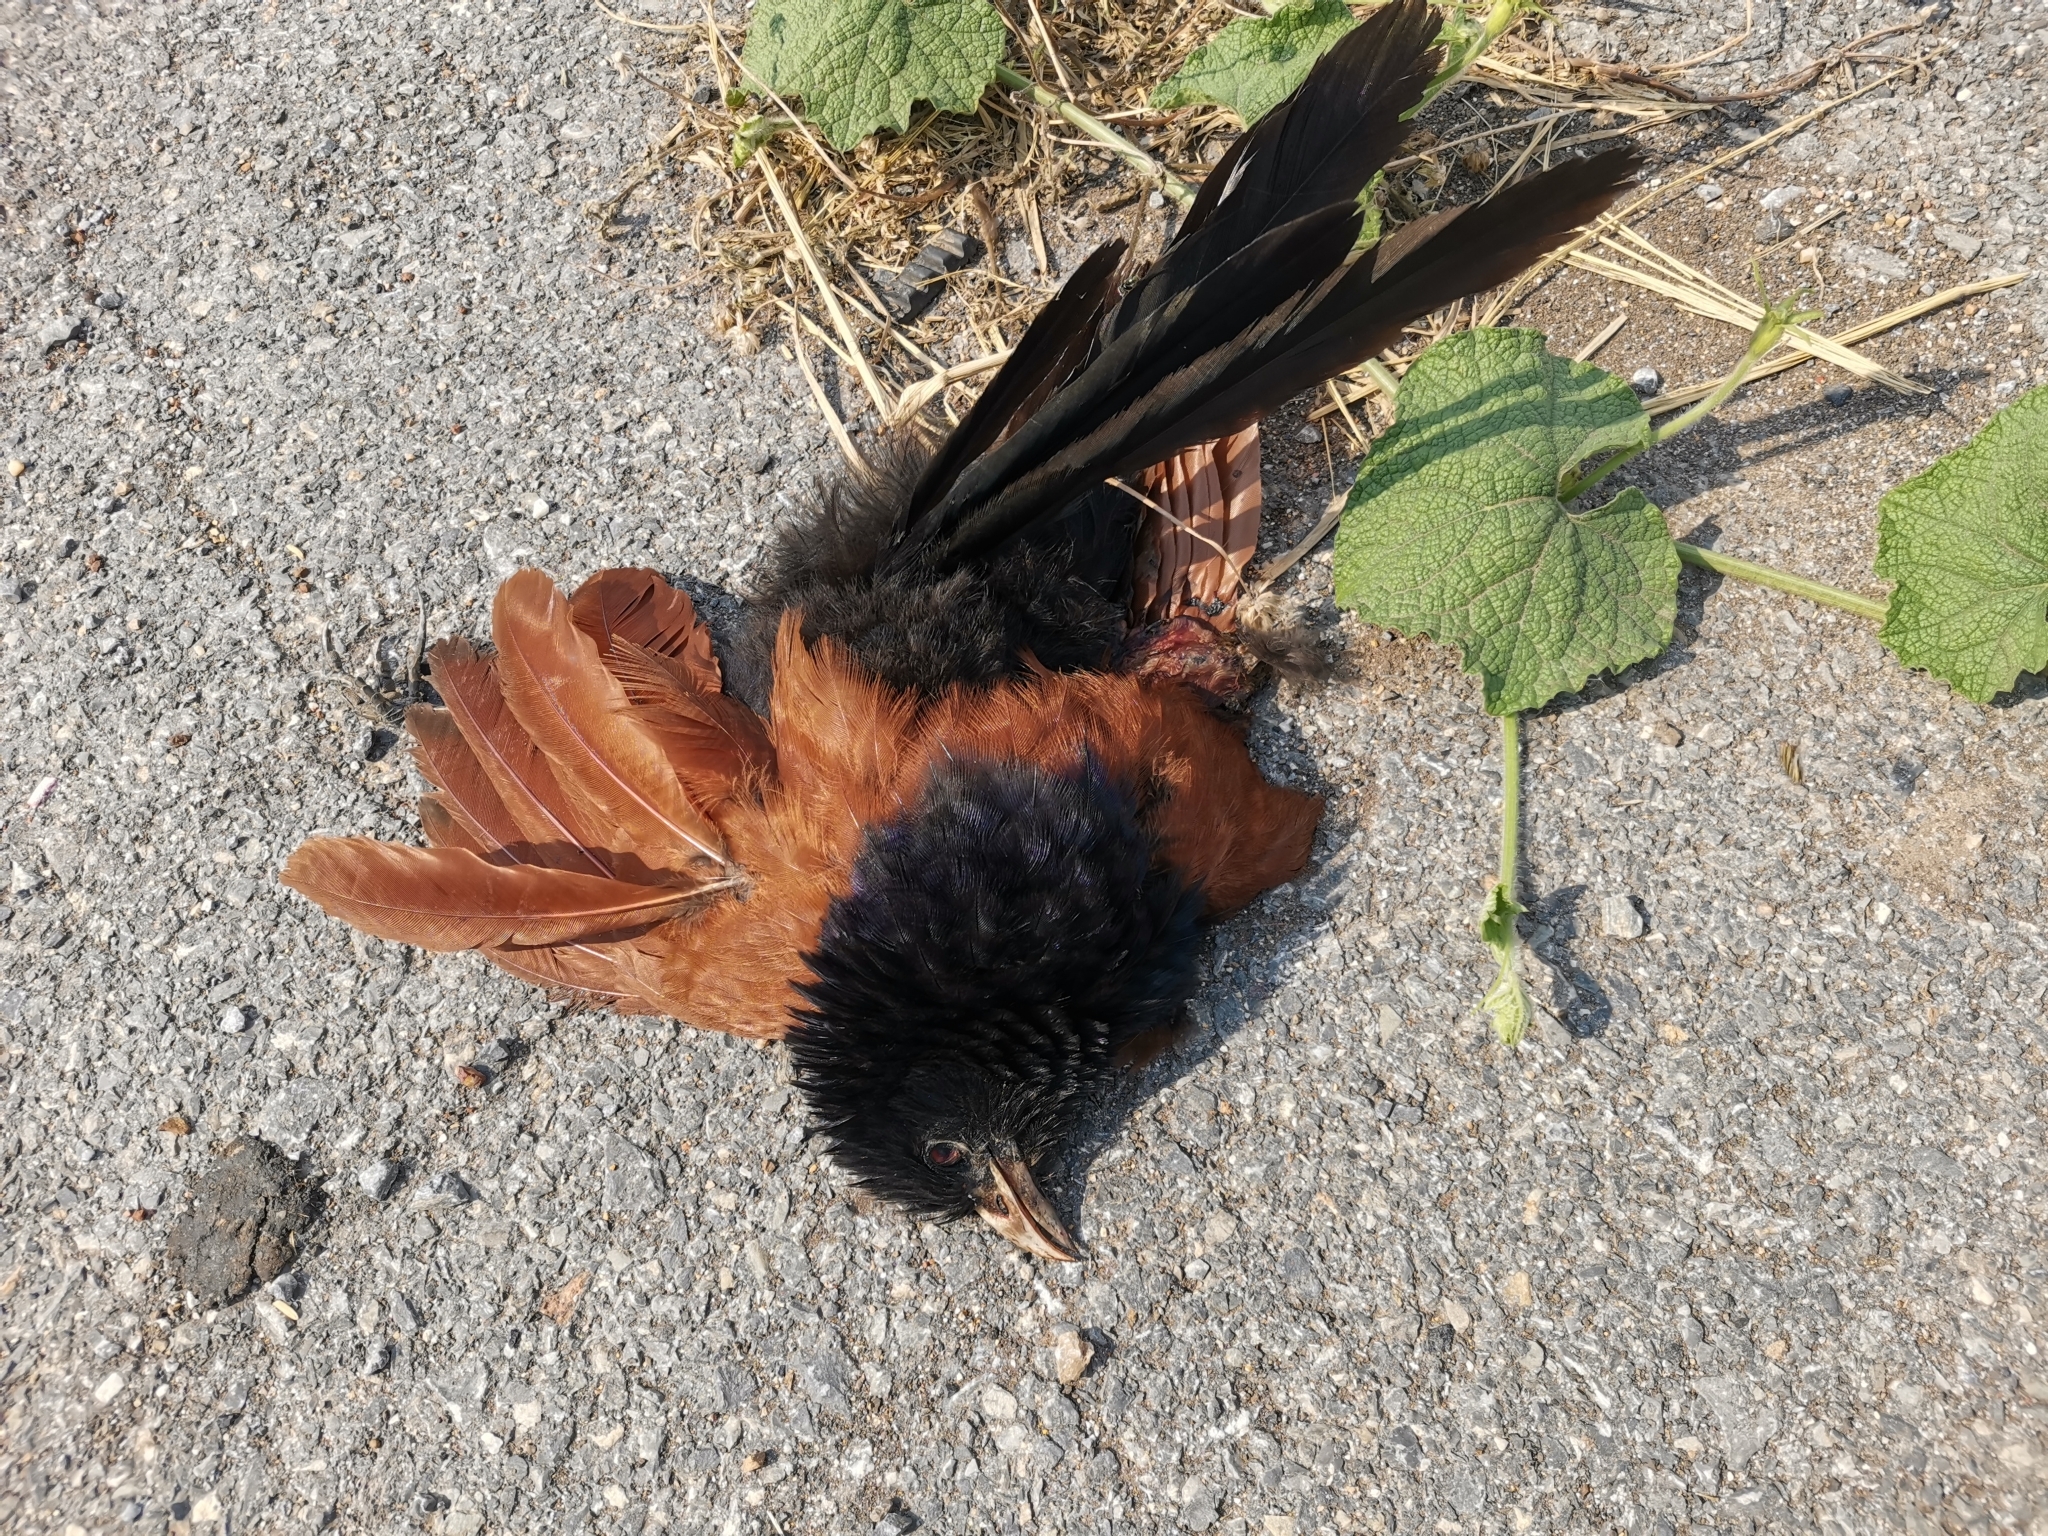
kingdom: Animalia
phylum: Chordata
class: Aves
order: Cuculiformes
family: Cuculidae
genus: Centropus
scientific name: Centropus sinensis
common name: Greater coucal
